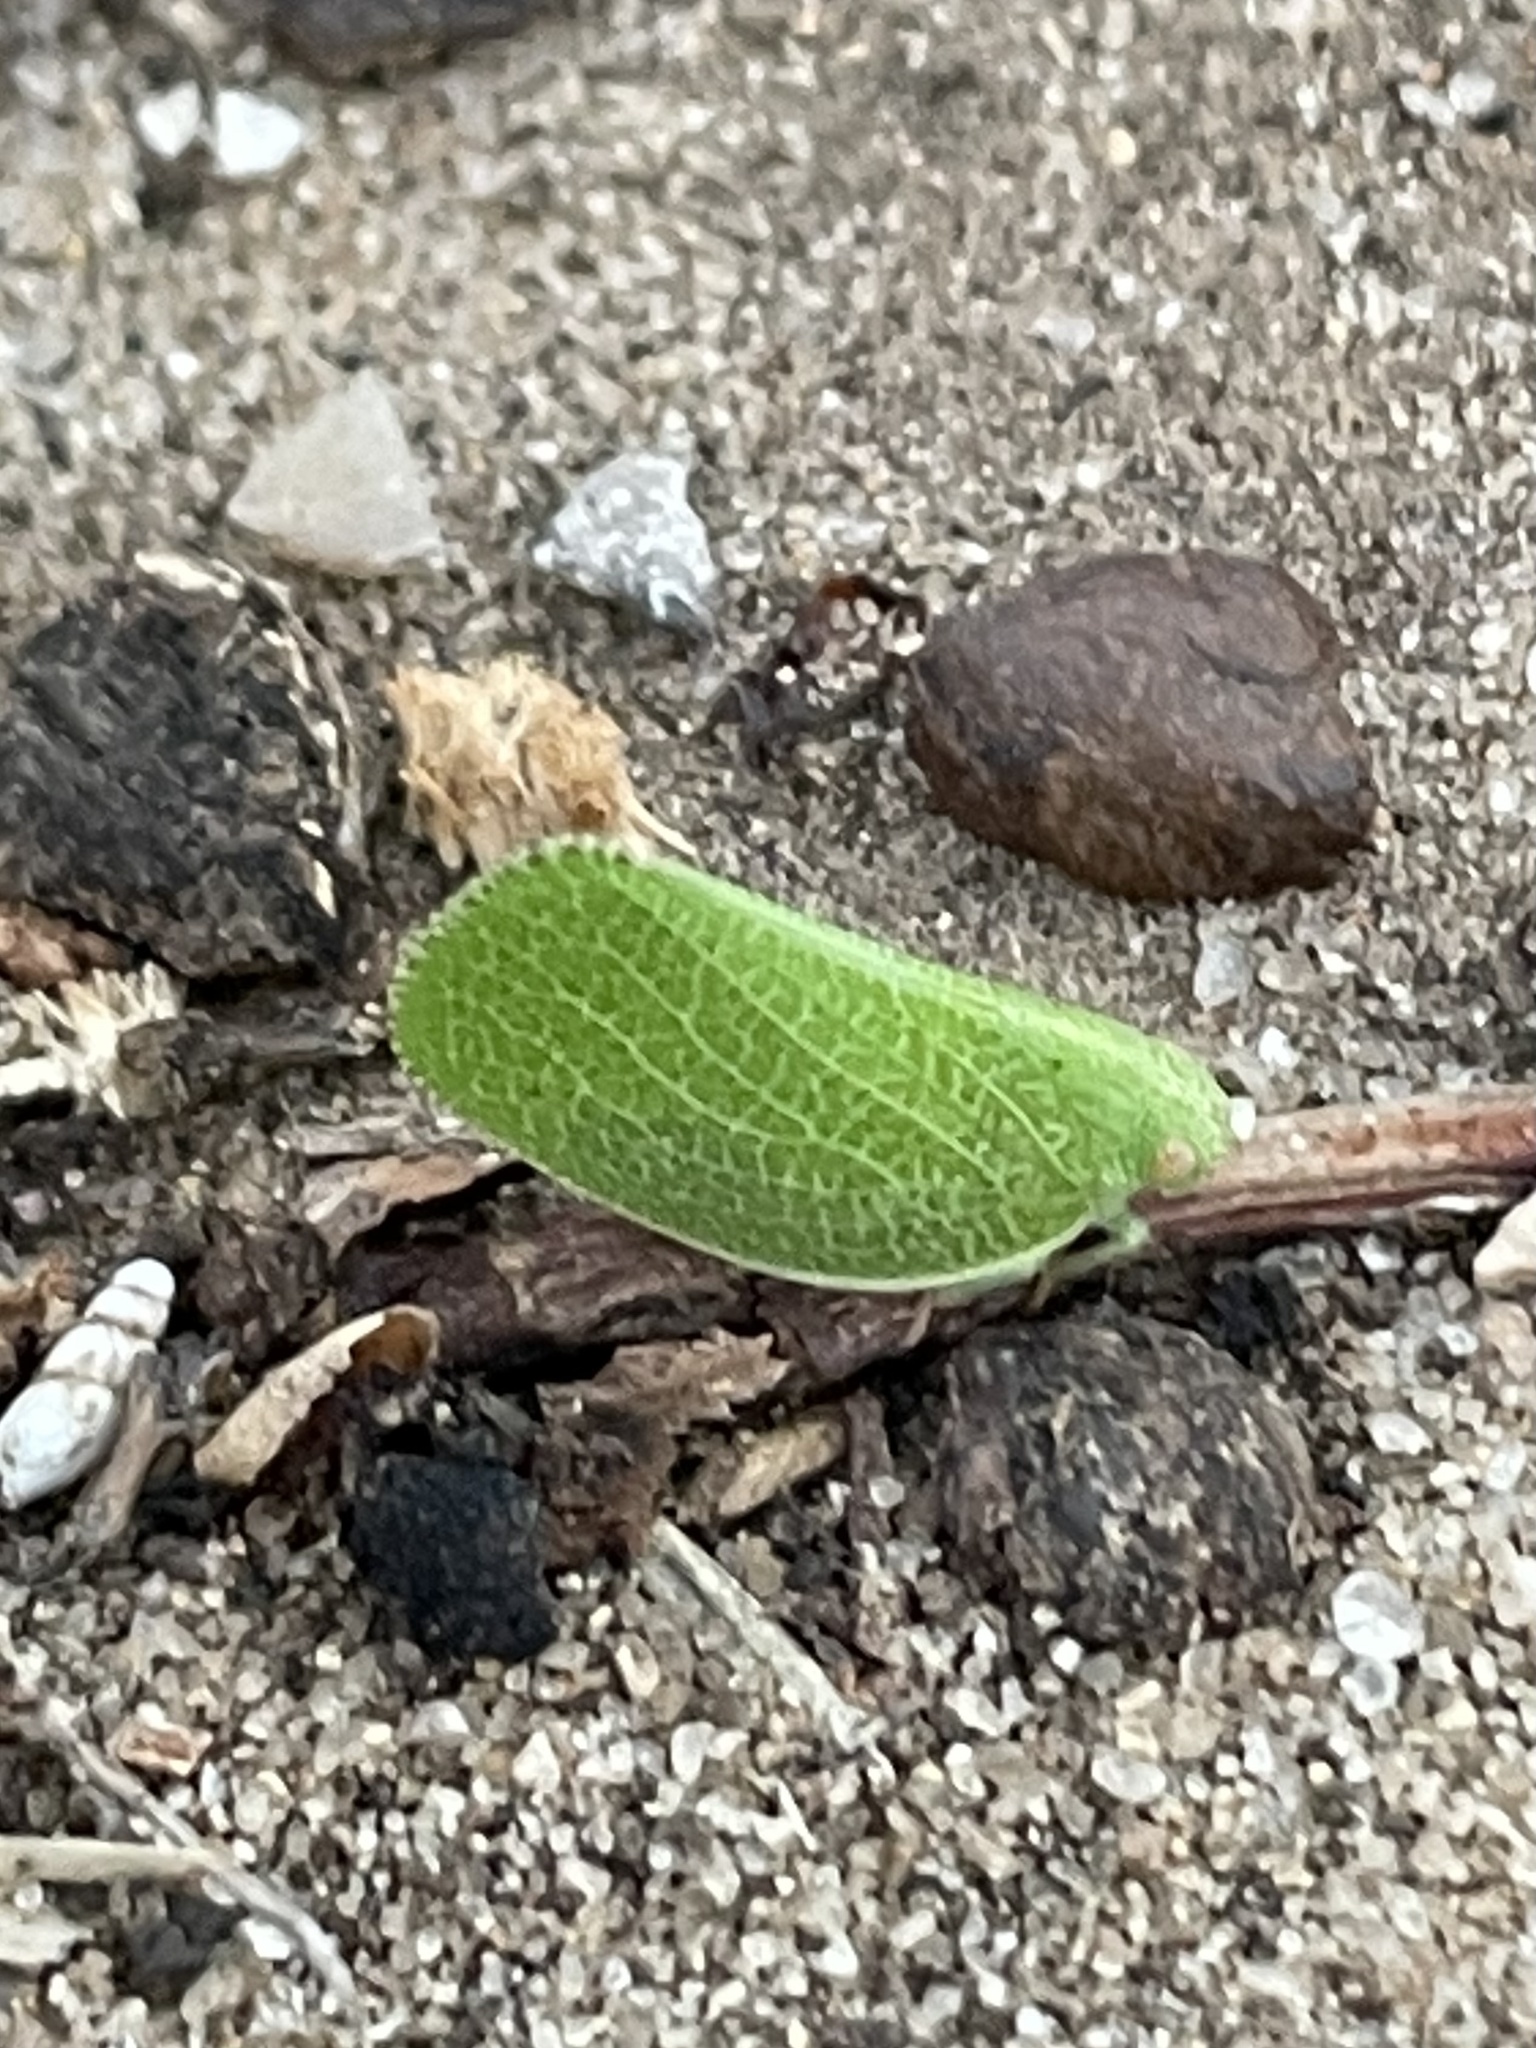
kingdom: Animalia
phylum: Arthropoda
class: Insecta
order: Hemiptera
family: Acanaloniidae
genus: Acanalonia
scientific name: Acanalonia conica
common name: Green cone-headed planthopper
